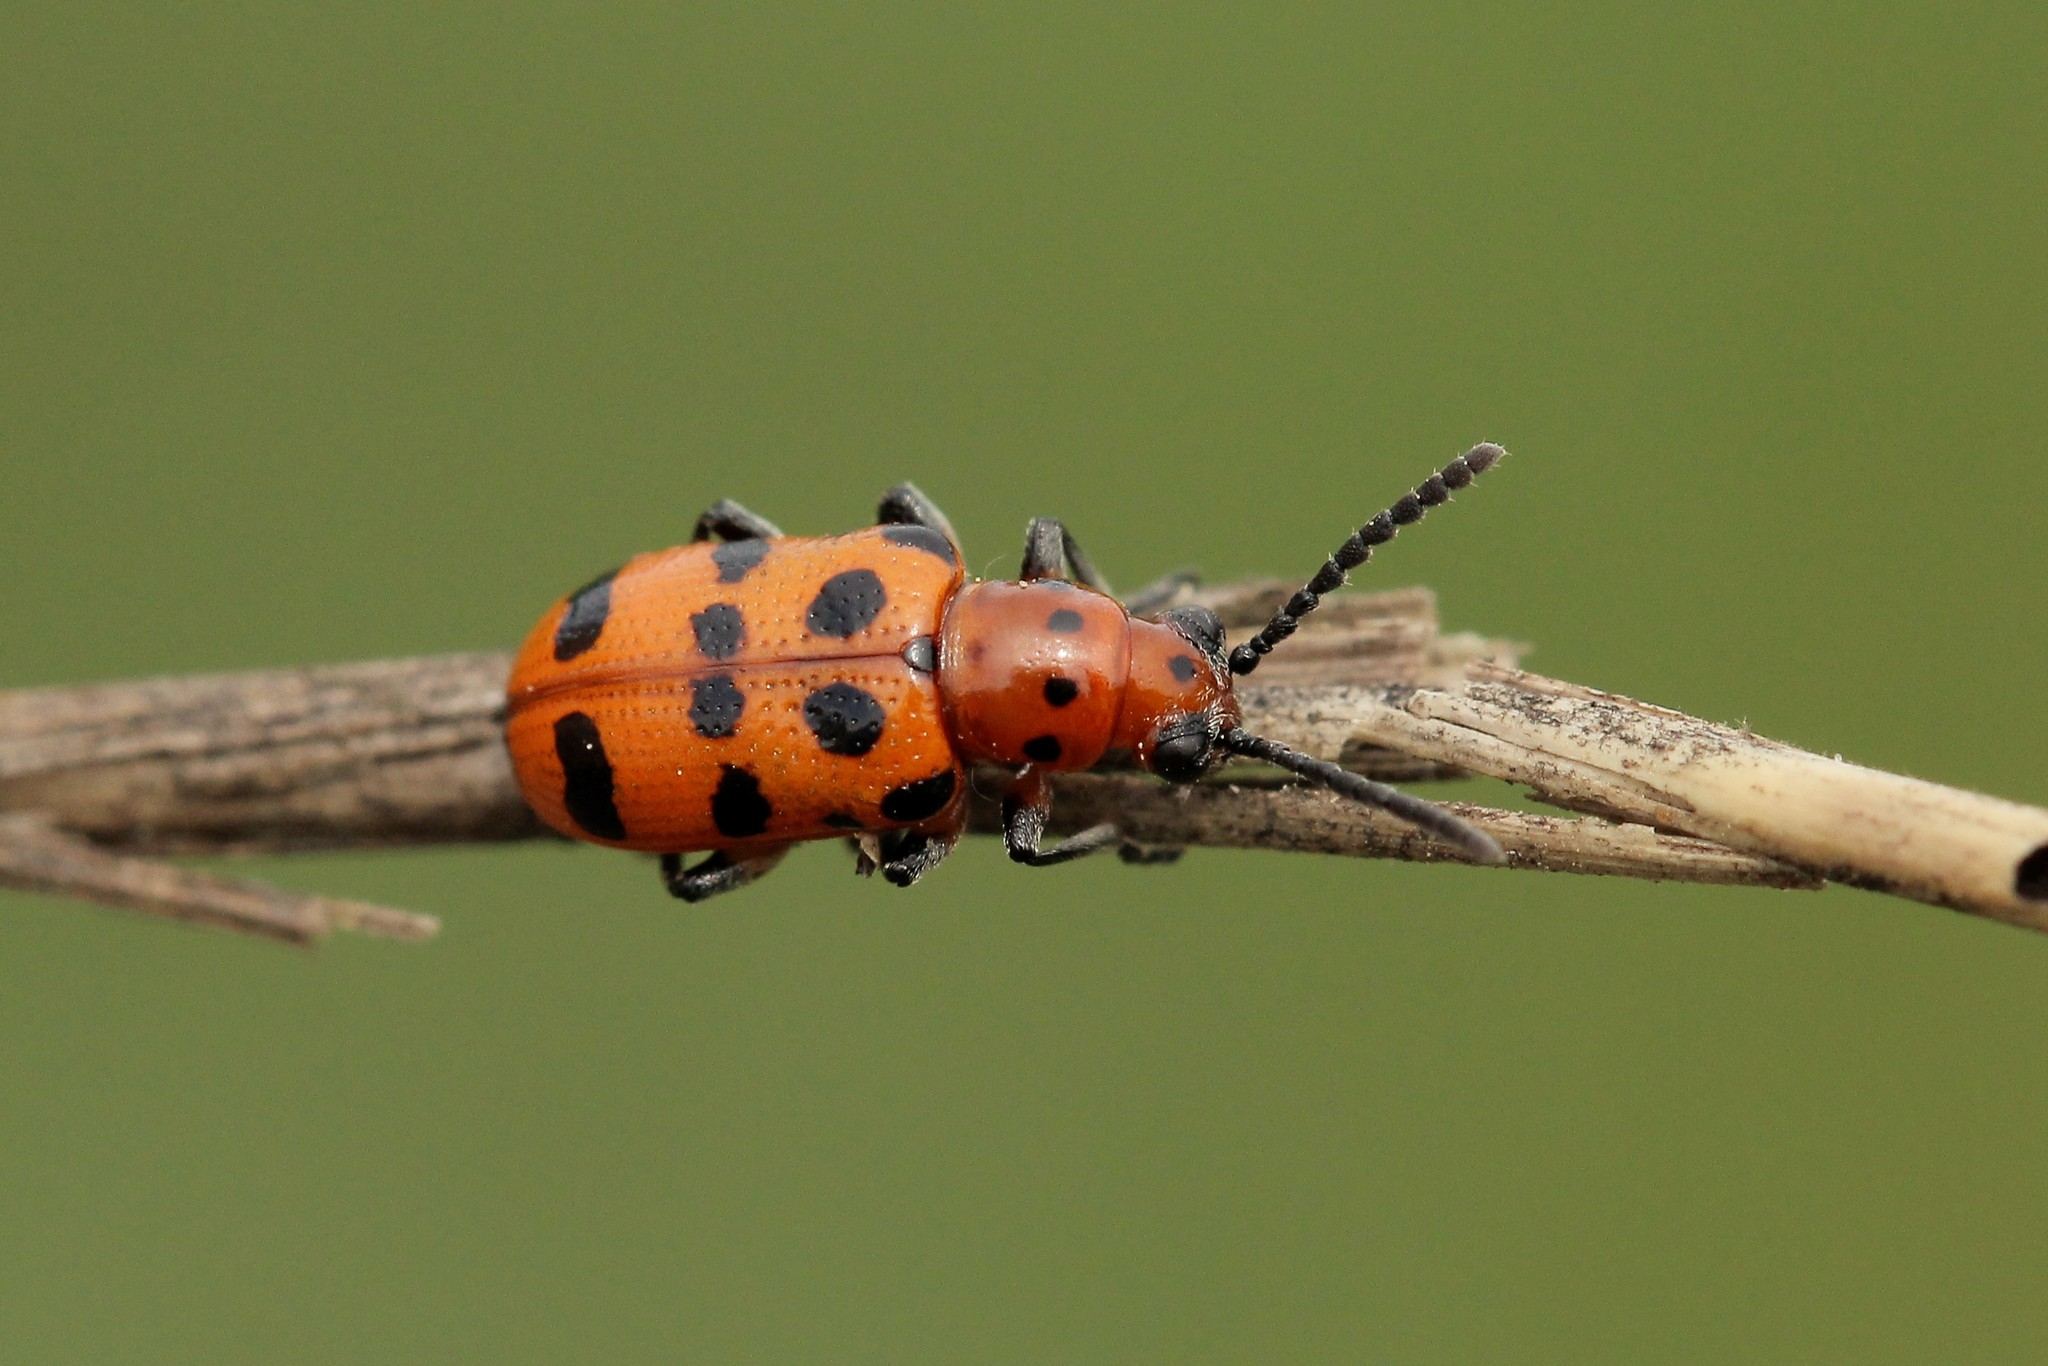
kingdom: Animalia
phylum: Arthropoda
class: Insecta
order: Coleoptera
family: Chrysomelidae
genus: Crioceris
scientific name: Crioceris quatuordecimpunctata
